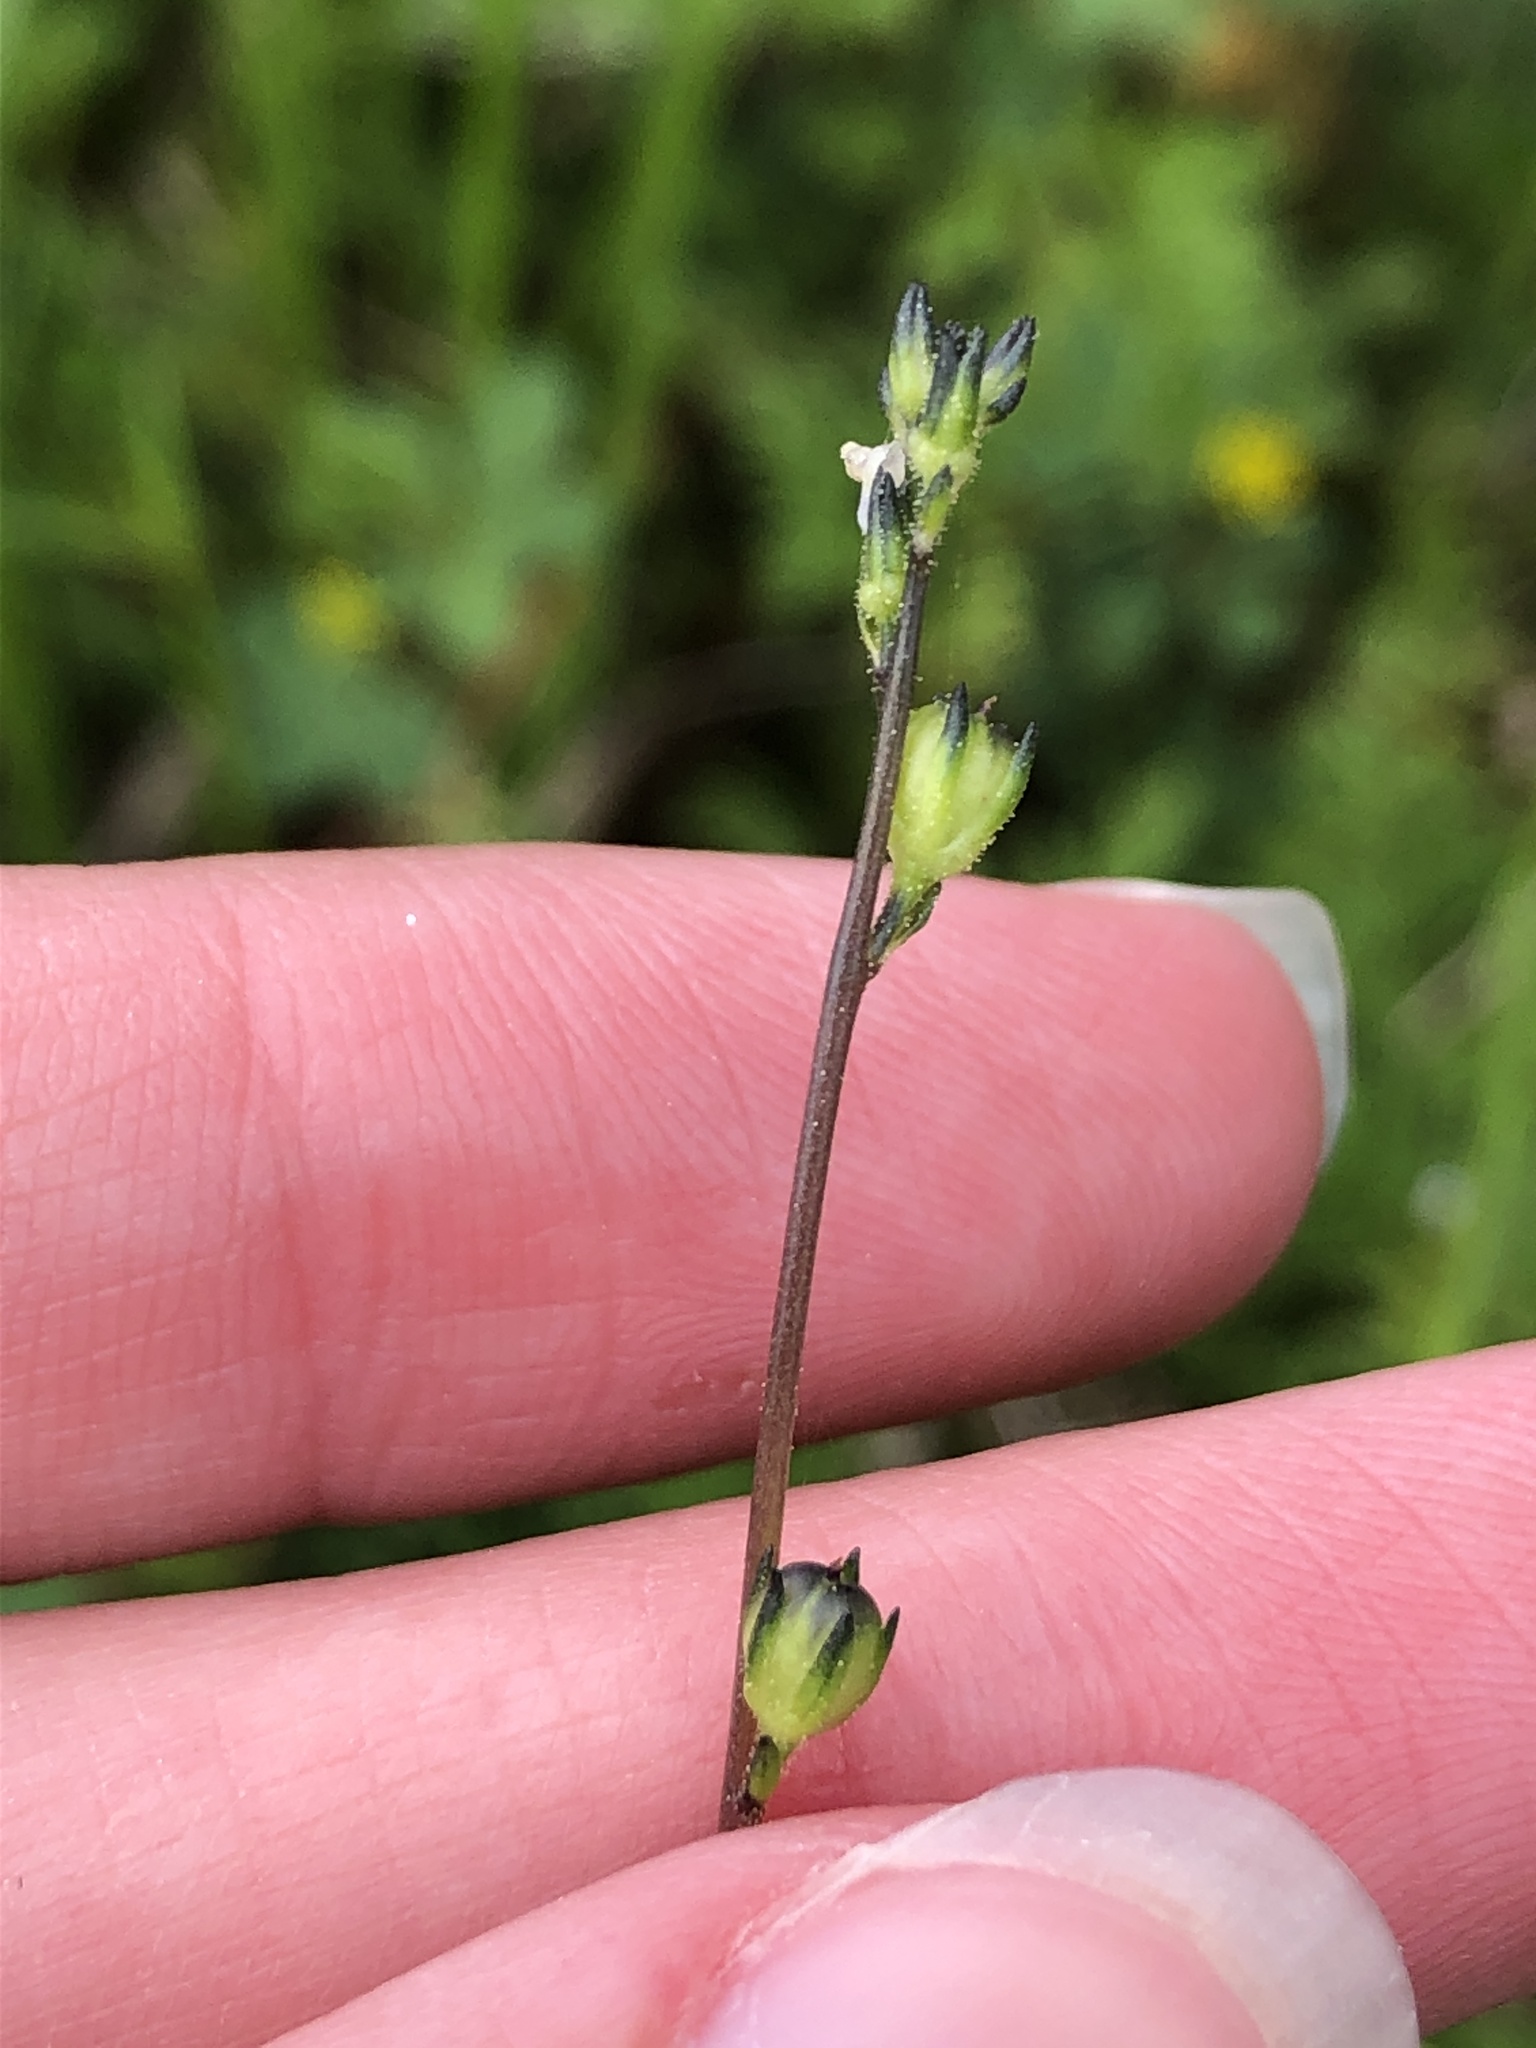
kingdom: Plantae
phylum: Tracheophyta
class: Magnoliopsida
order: Lamiales
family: Plantaginaceae
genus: Nuttallanthus
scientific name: Nuttallanthus canadensis
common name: Blue toadflax
